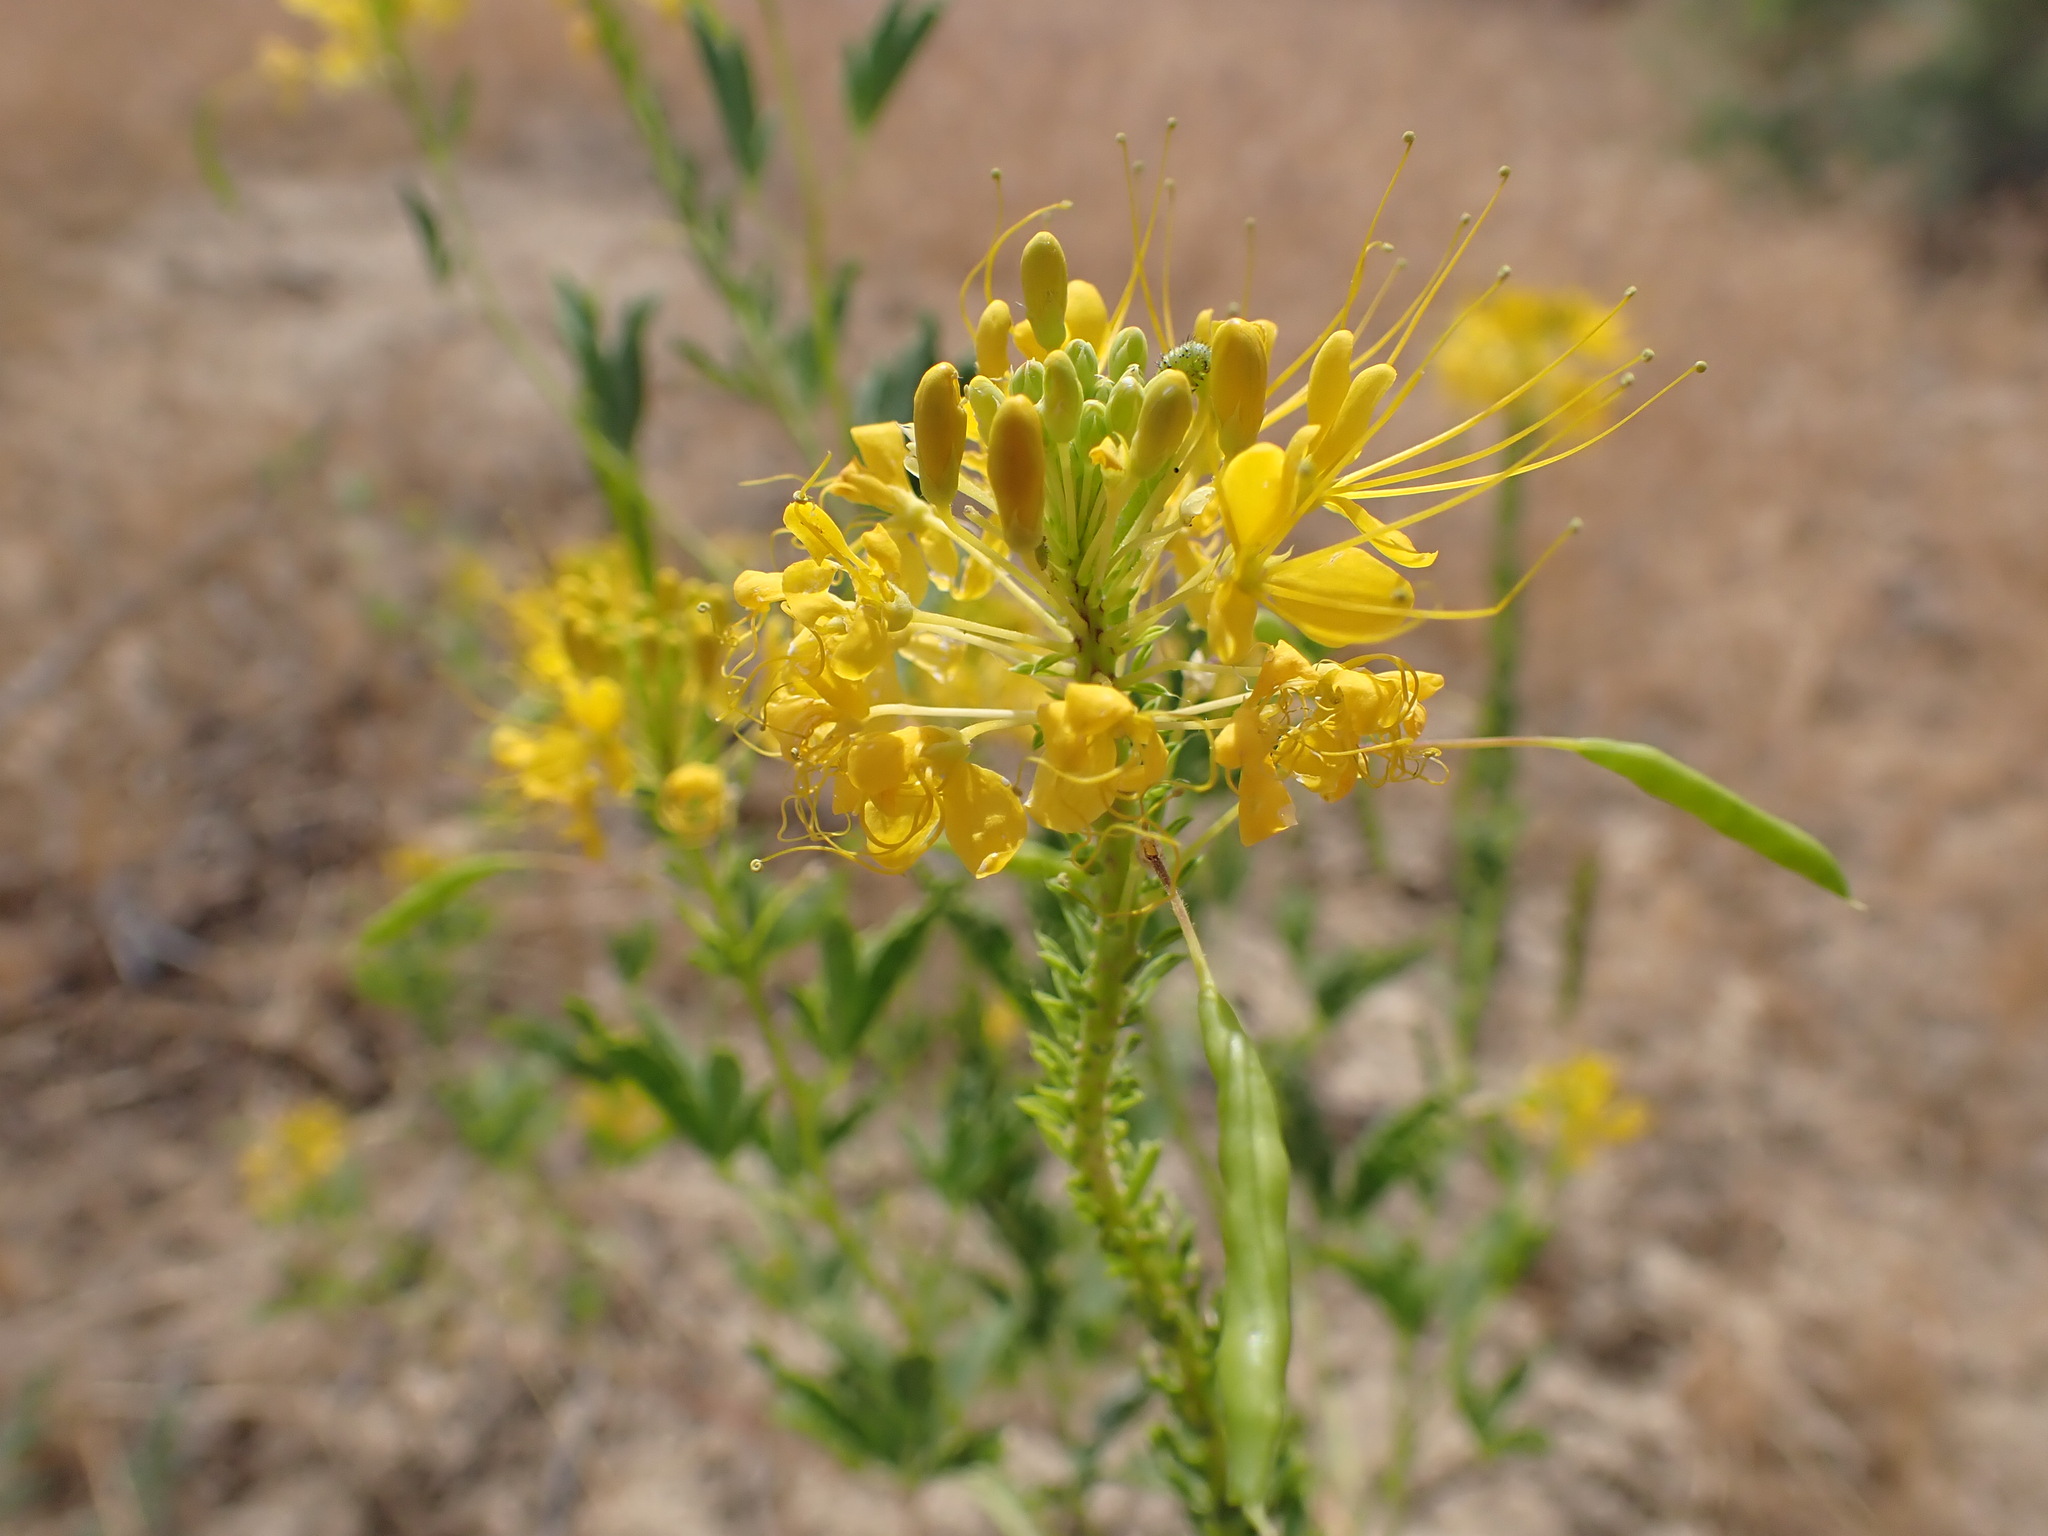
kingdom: Plantae
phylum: Tracheophyta
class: Magnoliopsida
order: Brassicales
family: Cleomaceae
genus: Cleomella
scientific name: Cleomella lutea
